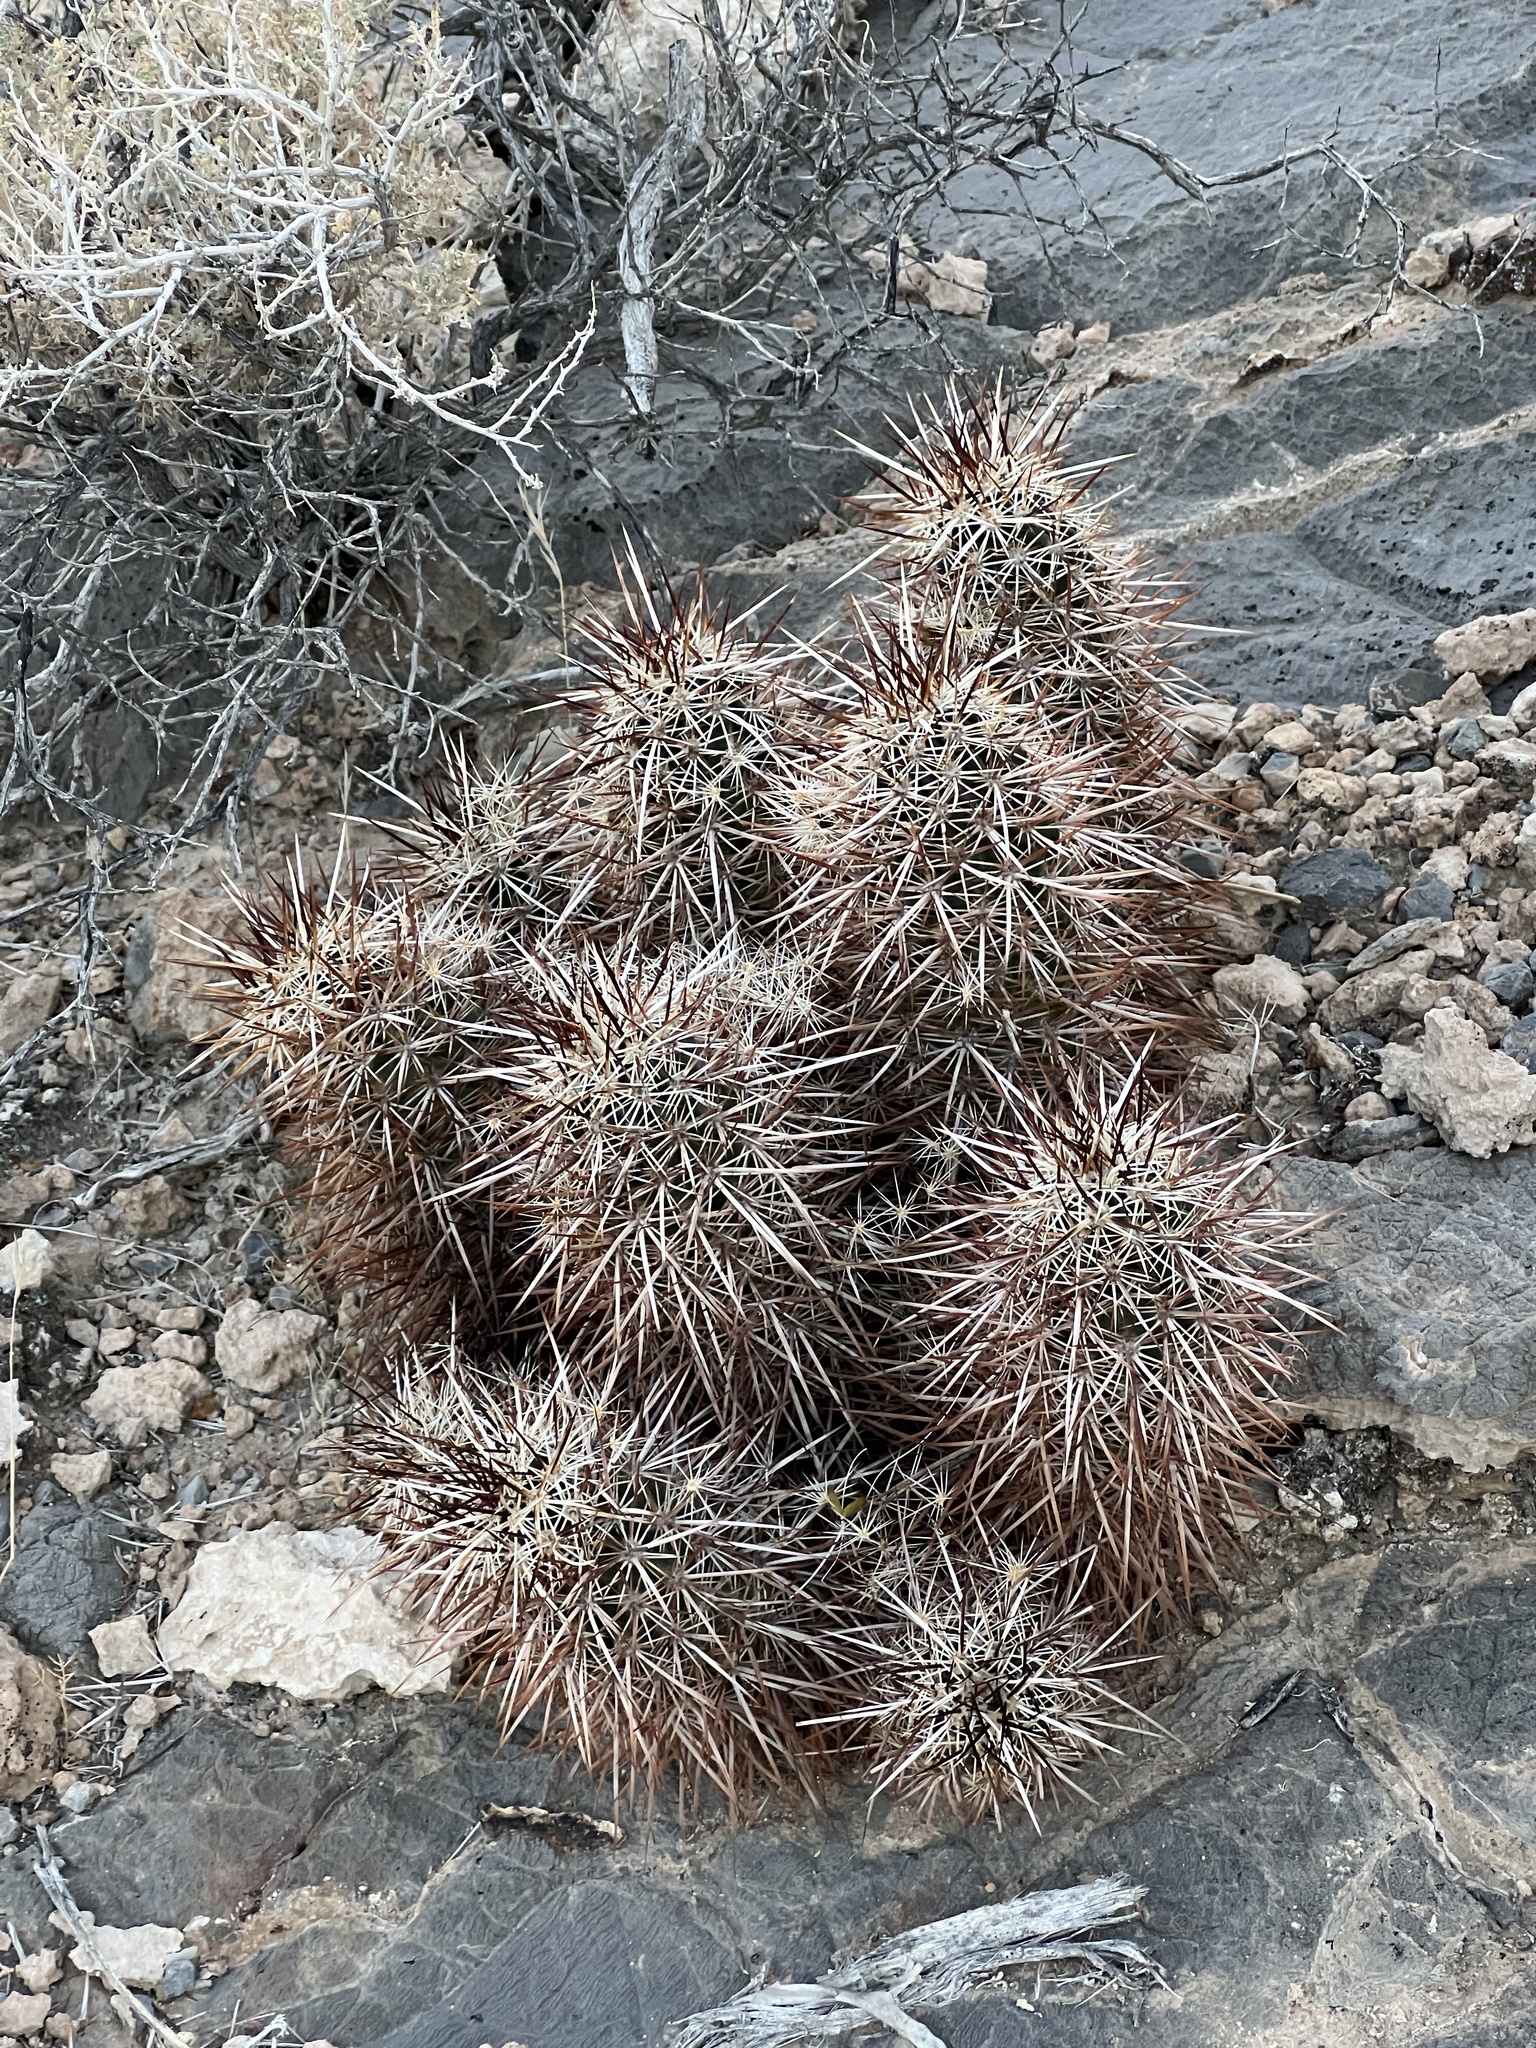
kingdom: Plantae
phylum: Tracheophyta
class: Magnoliopsida
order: Caryophyllales
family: Cactaceae
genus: Echinocereus
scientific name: Echinocereus engelmannii
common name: Engelmann's hedgehog cactus
